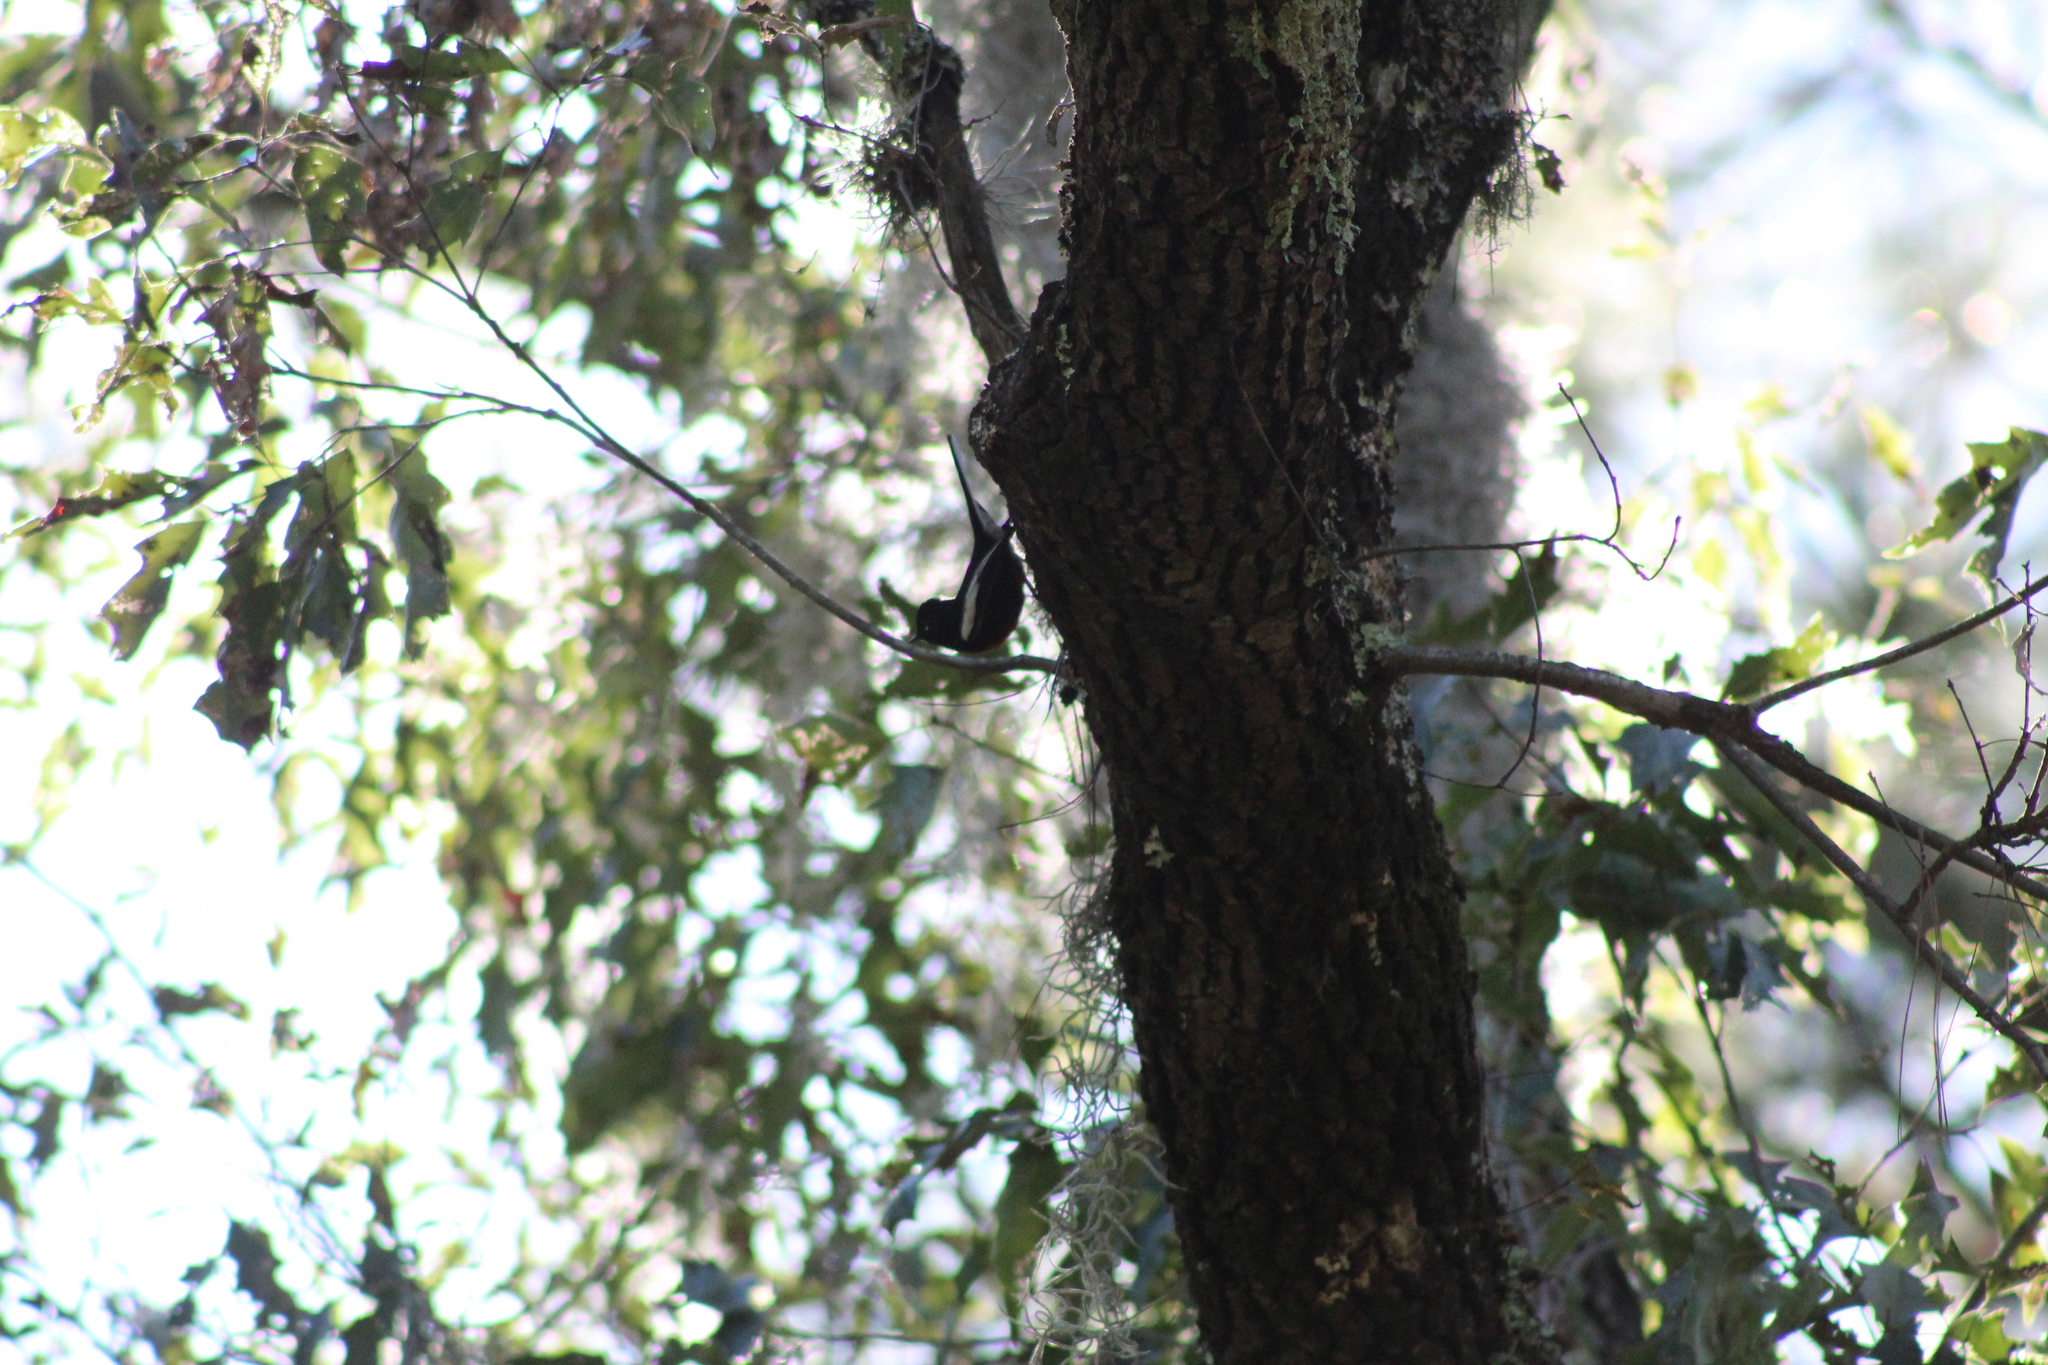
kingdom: Animalia
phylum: Chordata
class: Aves
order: Passeriformes
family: Parulidae
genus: Myioborus
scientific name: Myioborus pictus
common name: Painted whitestart
